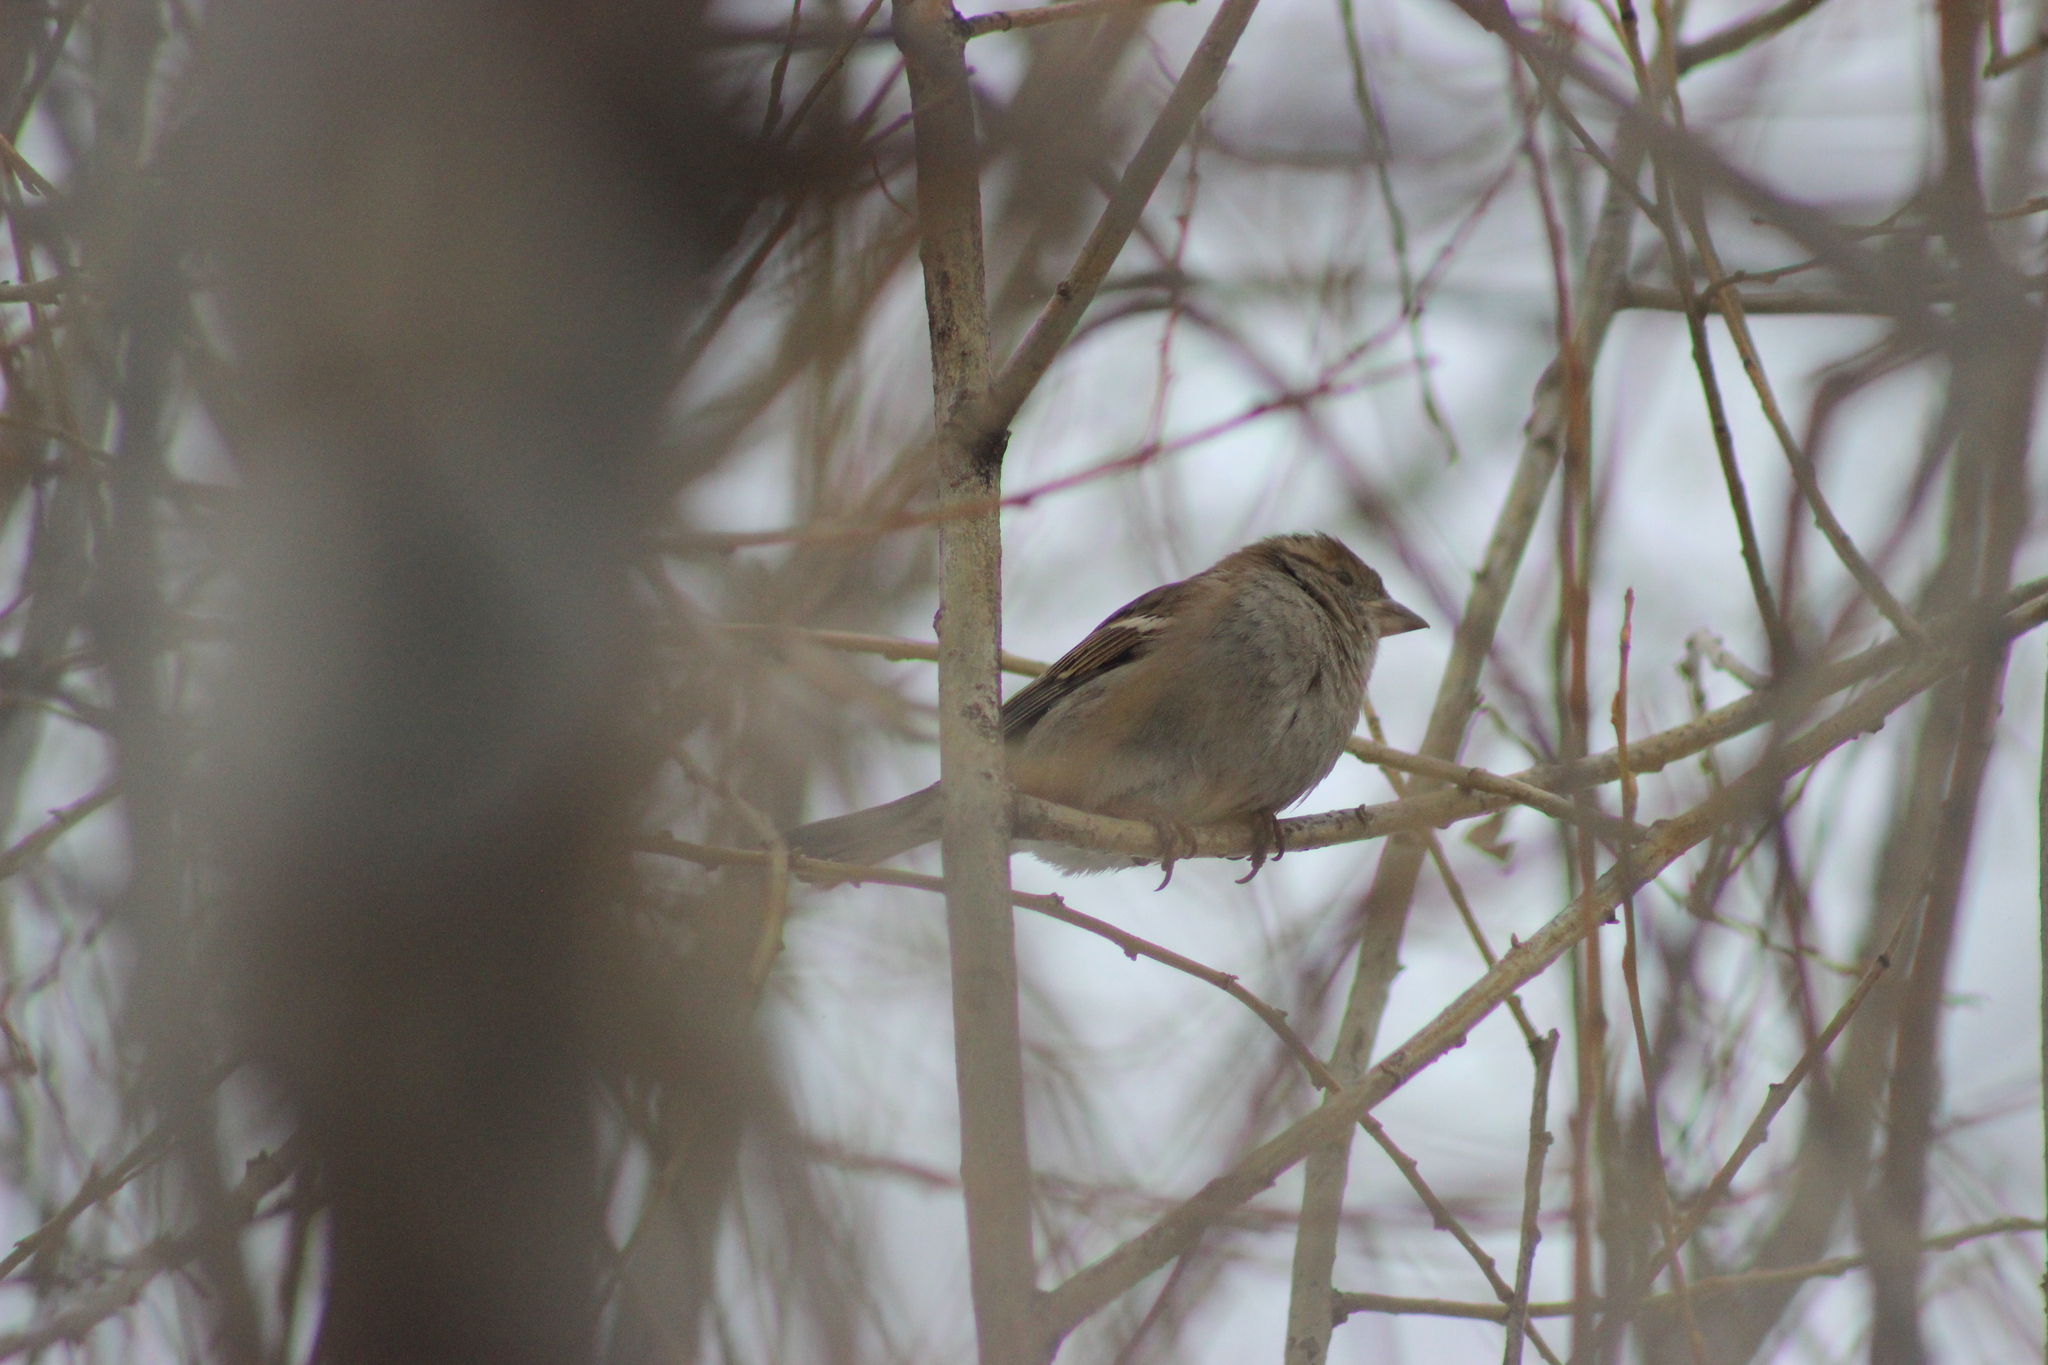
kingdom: Animalia
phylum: Chordata
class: Aves
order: Passeriformes
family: Passeridae
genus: Passer
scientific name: Passer domesticus
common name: House sparrow
